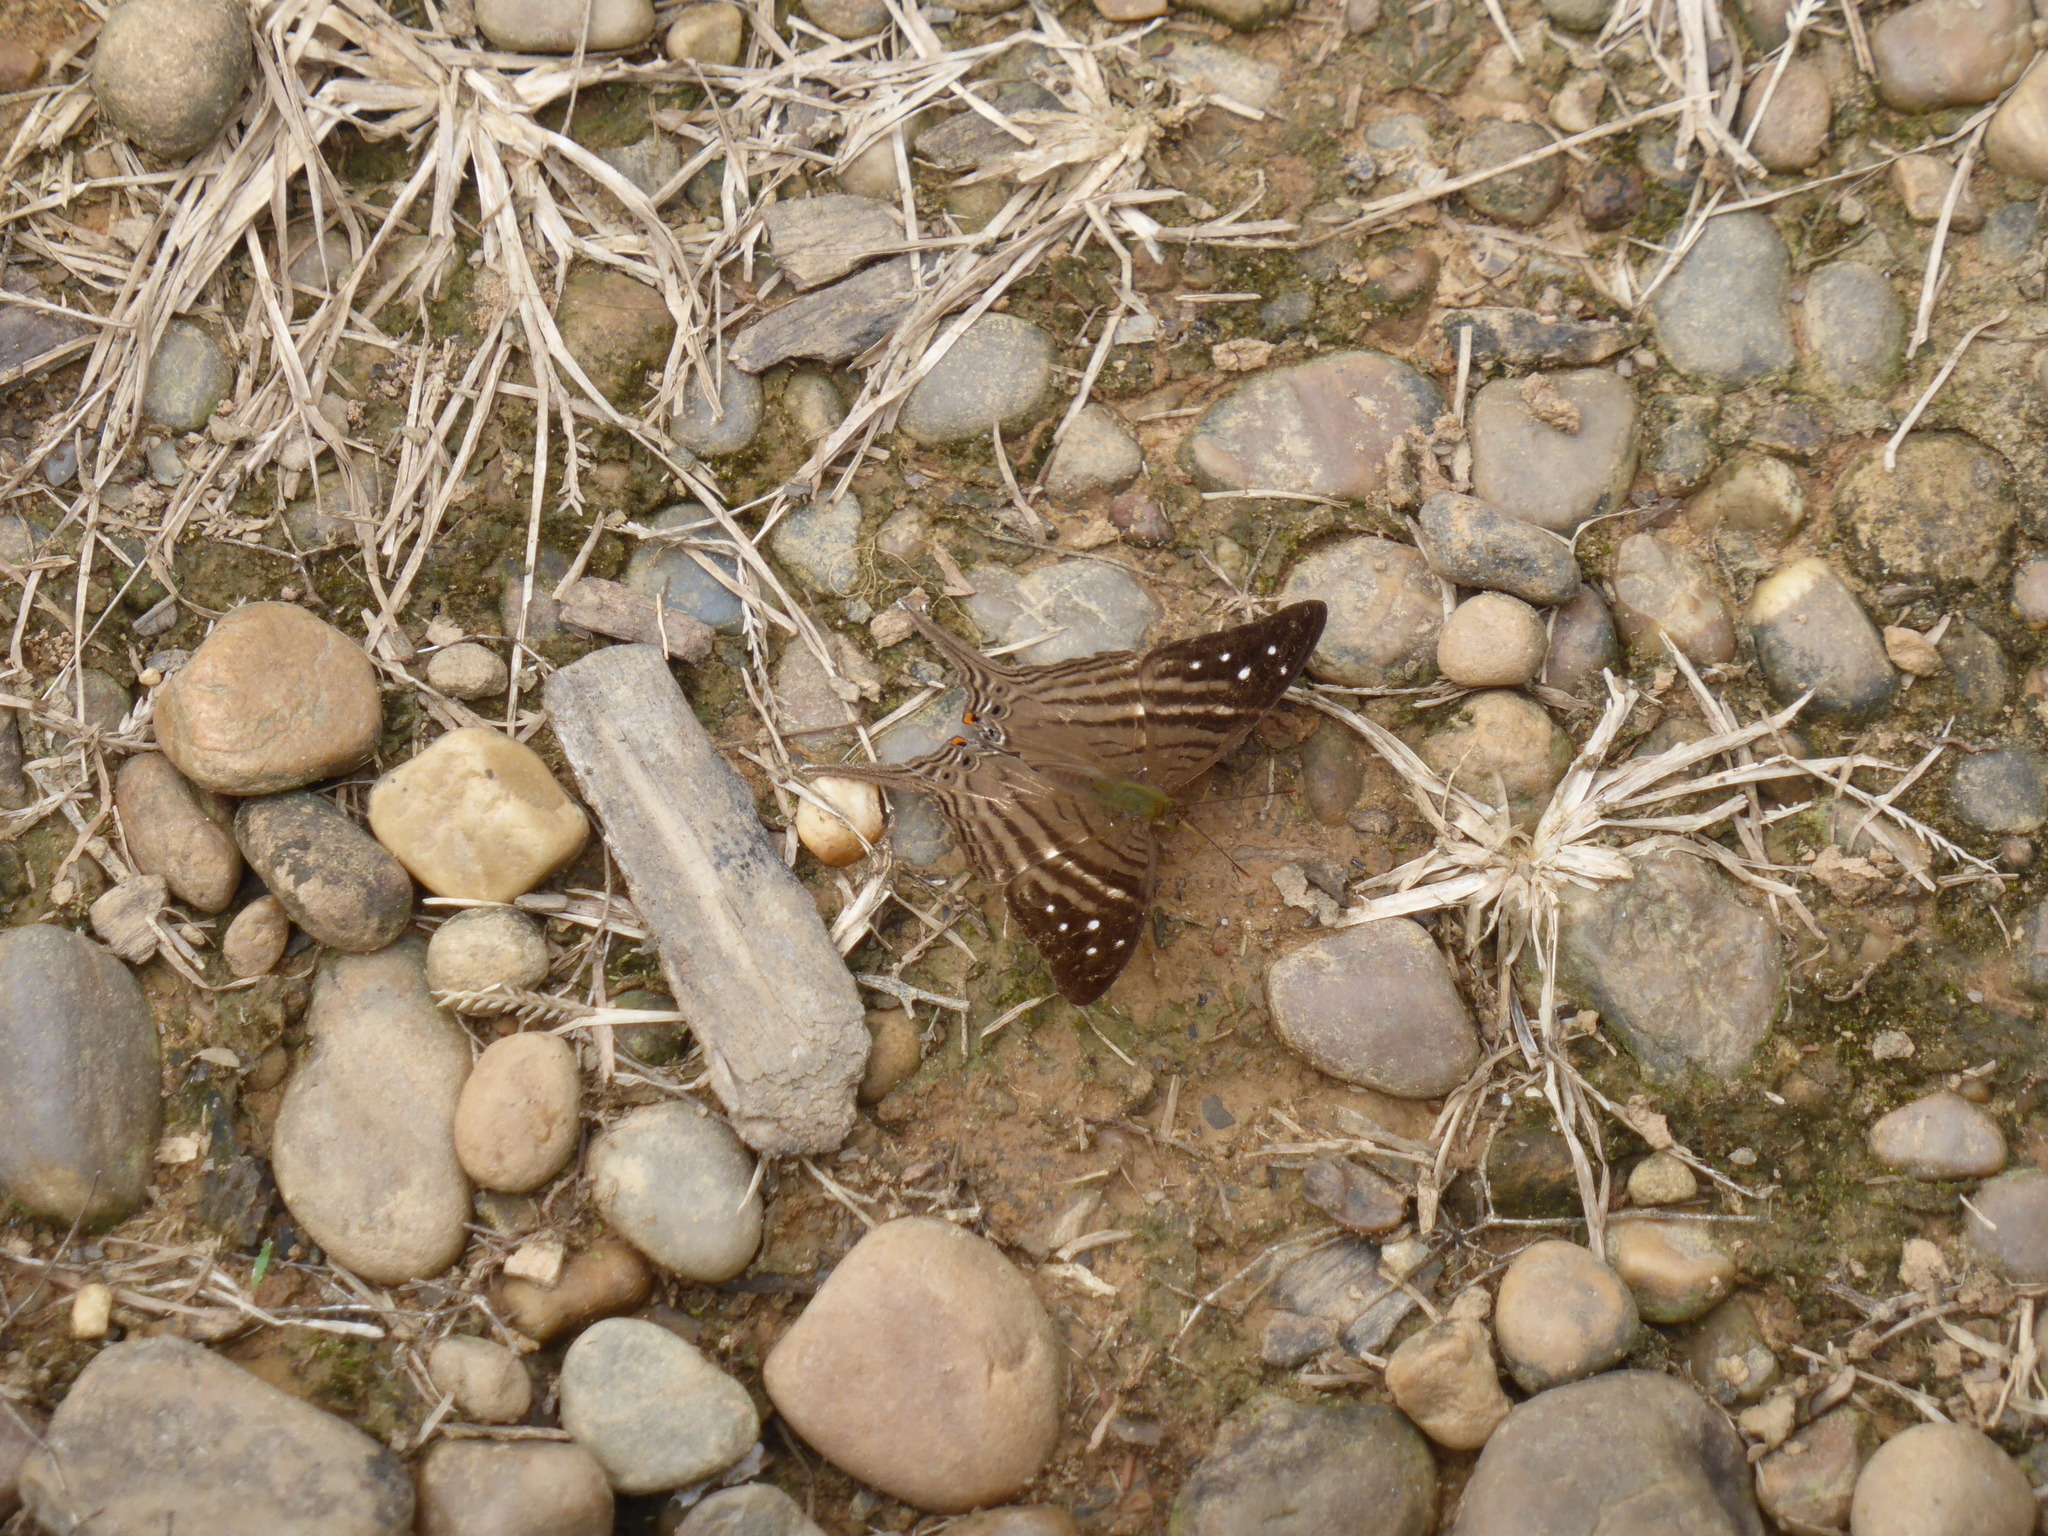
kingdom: Animalia
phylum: Arthropoda
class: Insecta
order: Lepidoptera
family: Nymphalidae
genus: Marpesia
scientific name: Marpesia egina
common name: Egina daggerwing
